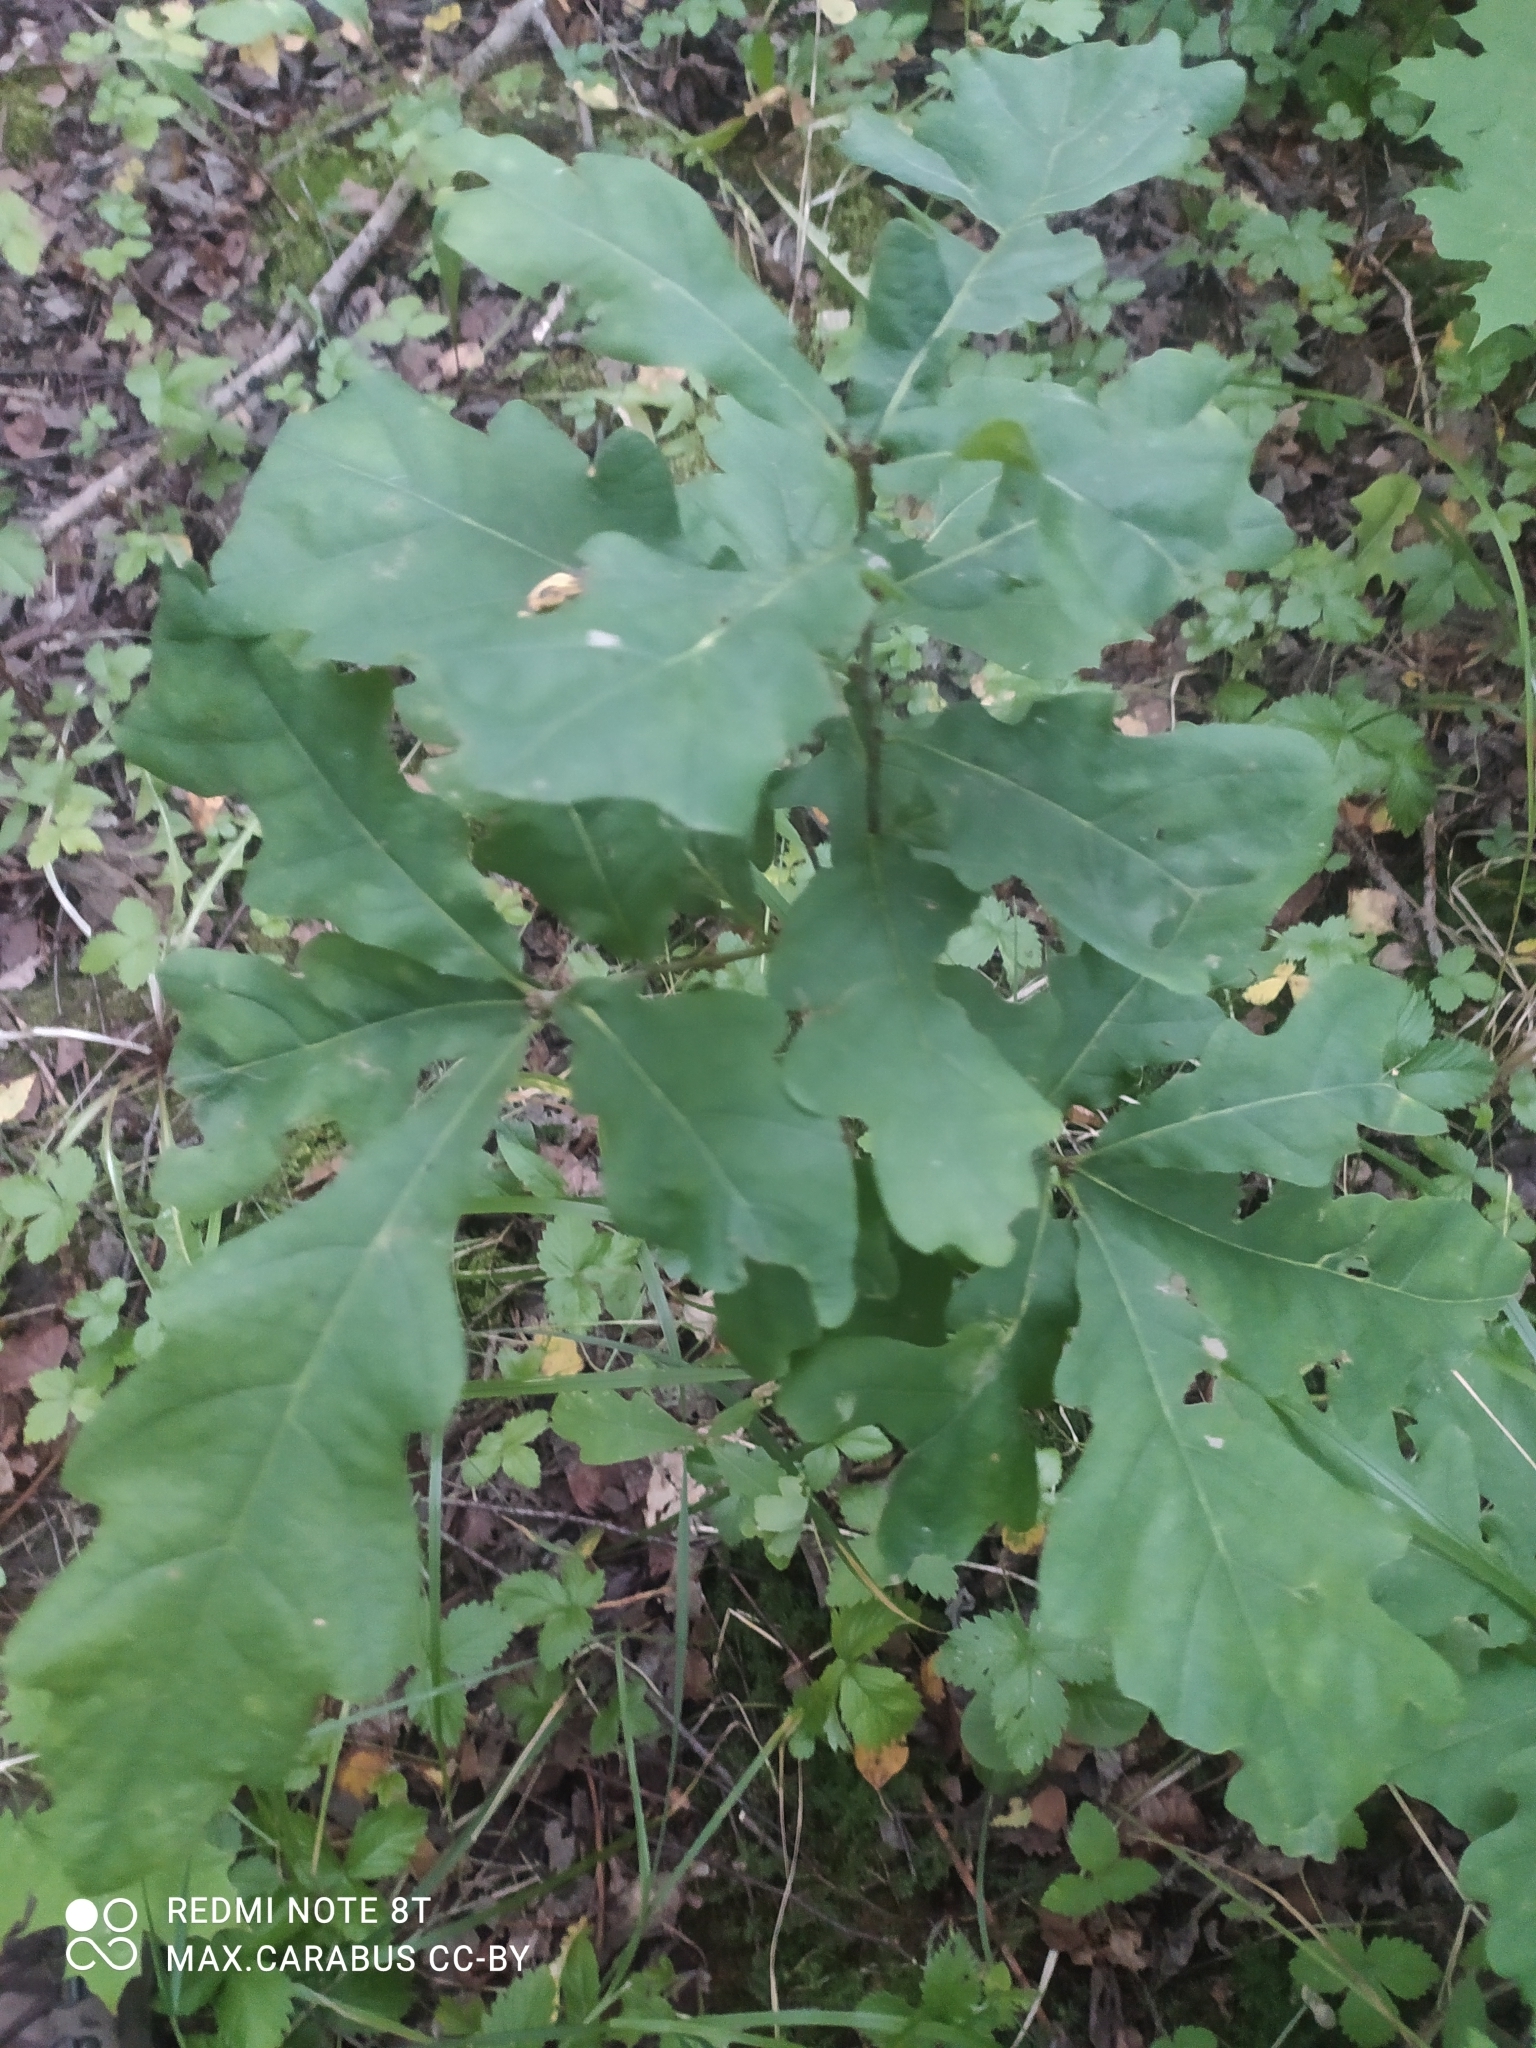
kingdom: Plantae
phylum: Tracheophyta
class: Magnoliopsida
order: Fagales
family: Fagaceae
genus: Quercus
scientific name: Quercus robur
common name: Pedunculate oak
